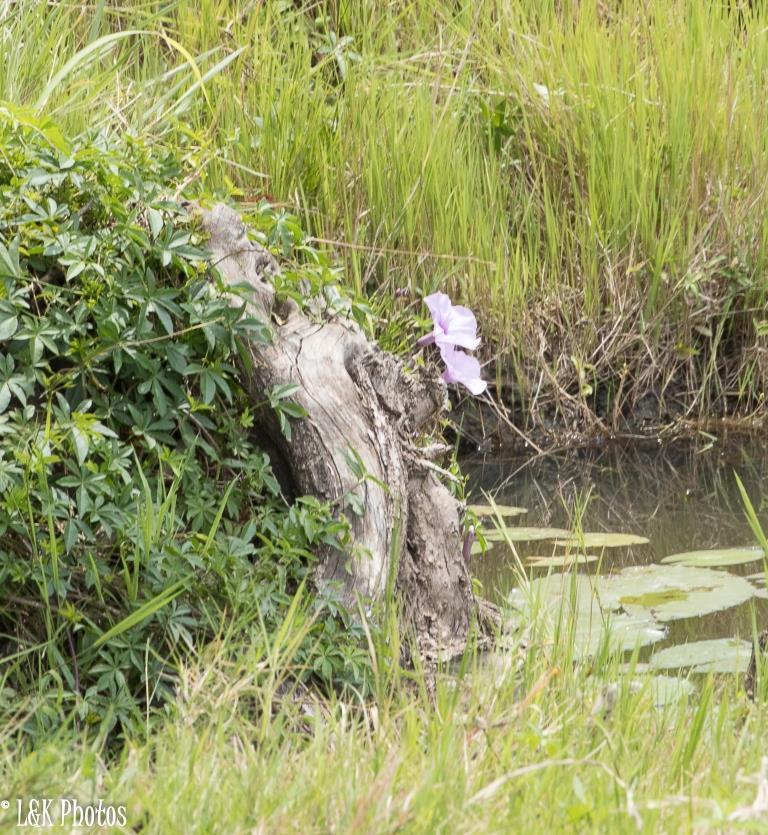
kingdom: Plantae
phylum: Tracheophyta
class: Magnoliopsida
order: Solanales
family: Convolvulaceae
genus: Ipomoea
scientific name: Ipomoea cairica
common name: Mile a minute vine
